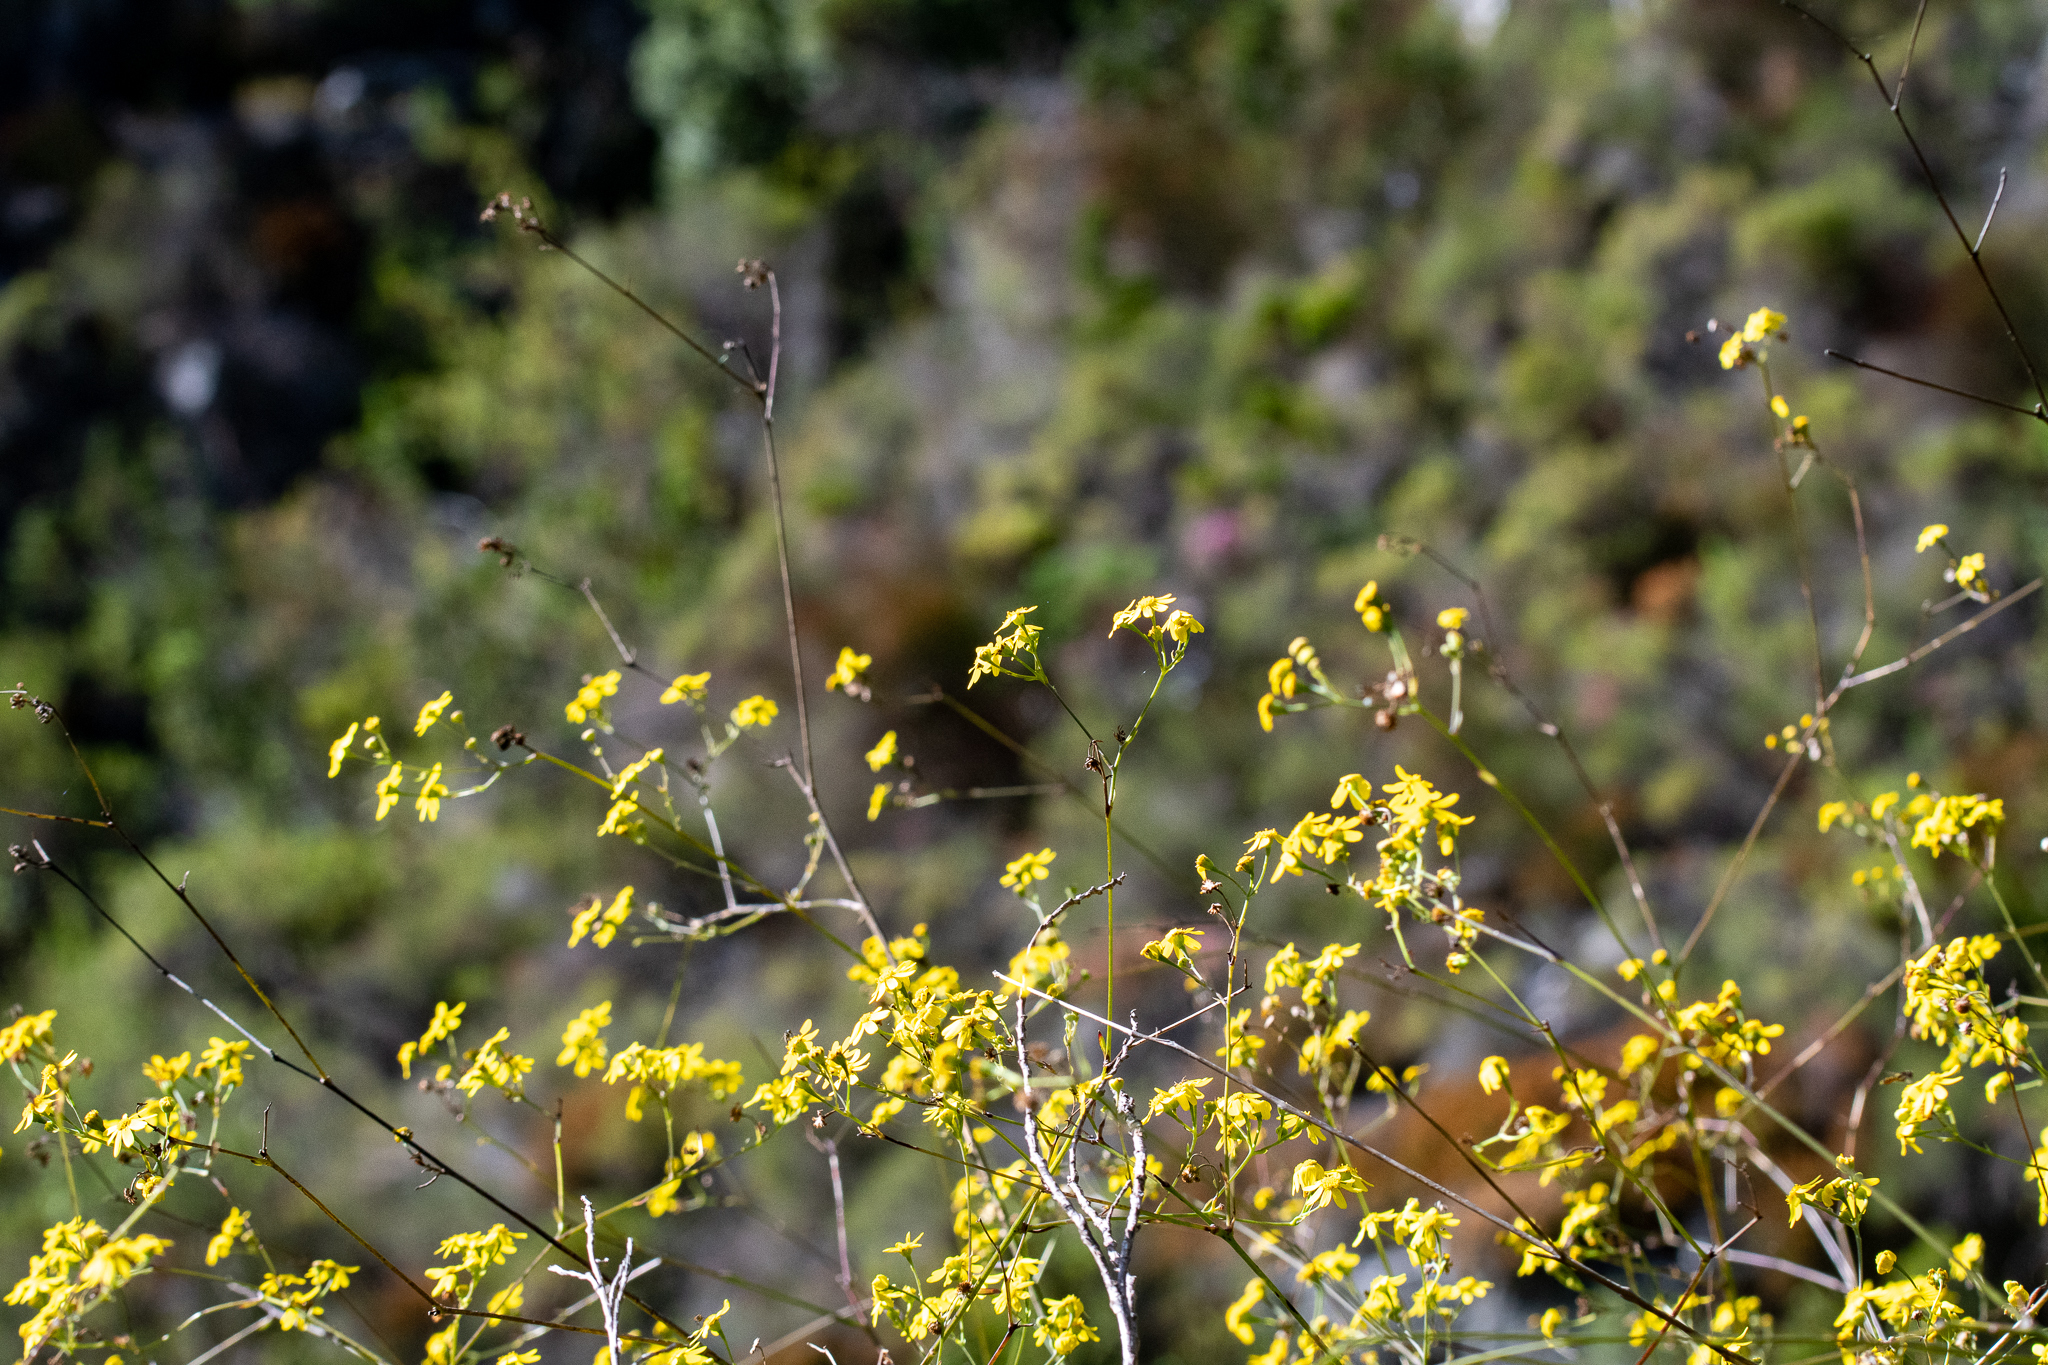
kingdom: Plantae
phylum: Tracheophyta
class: Magnoliopsida
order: Asterales
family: Asteraceae
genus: Othonna
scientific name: Othonna quinquedentata
